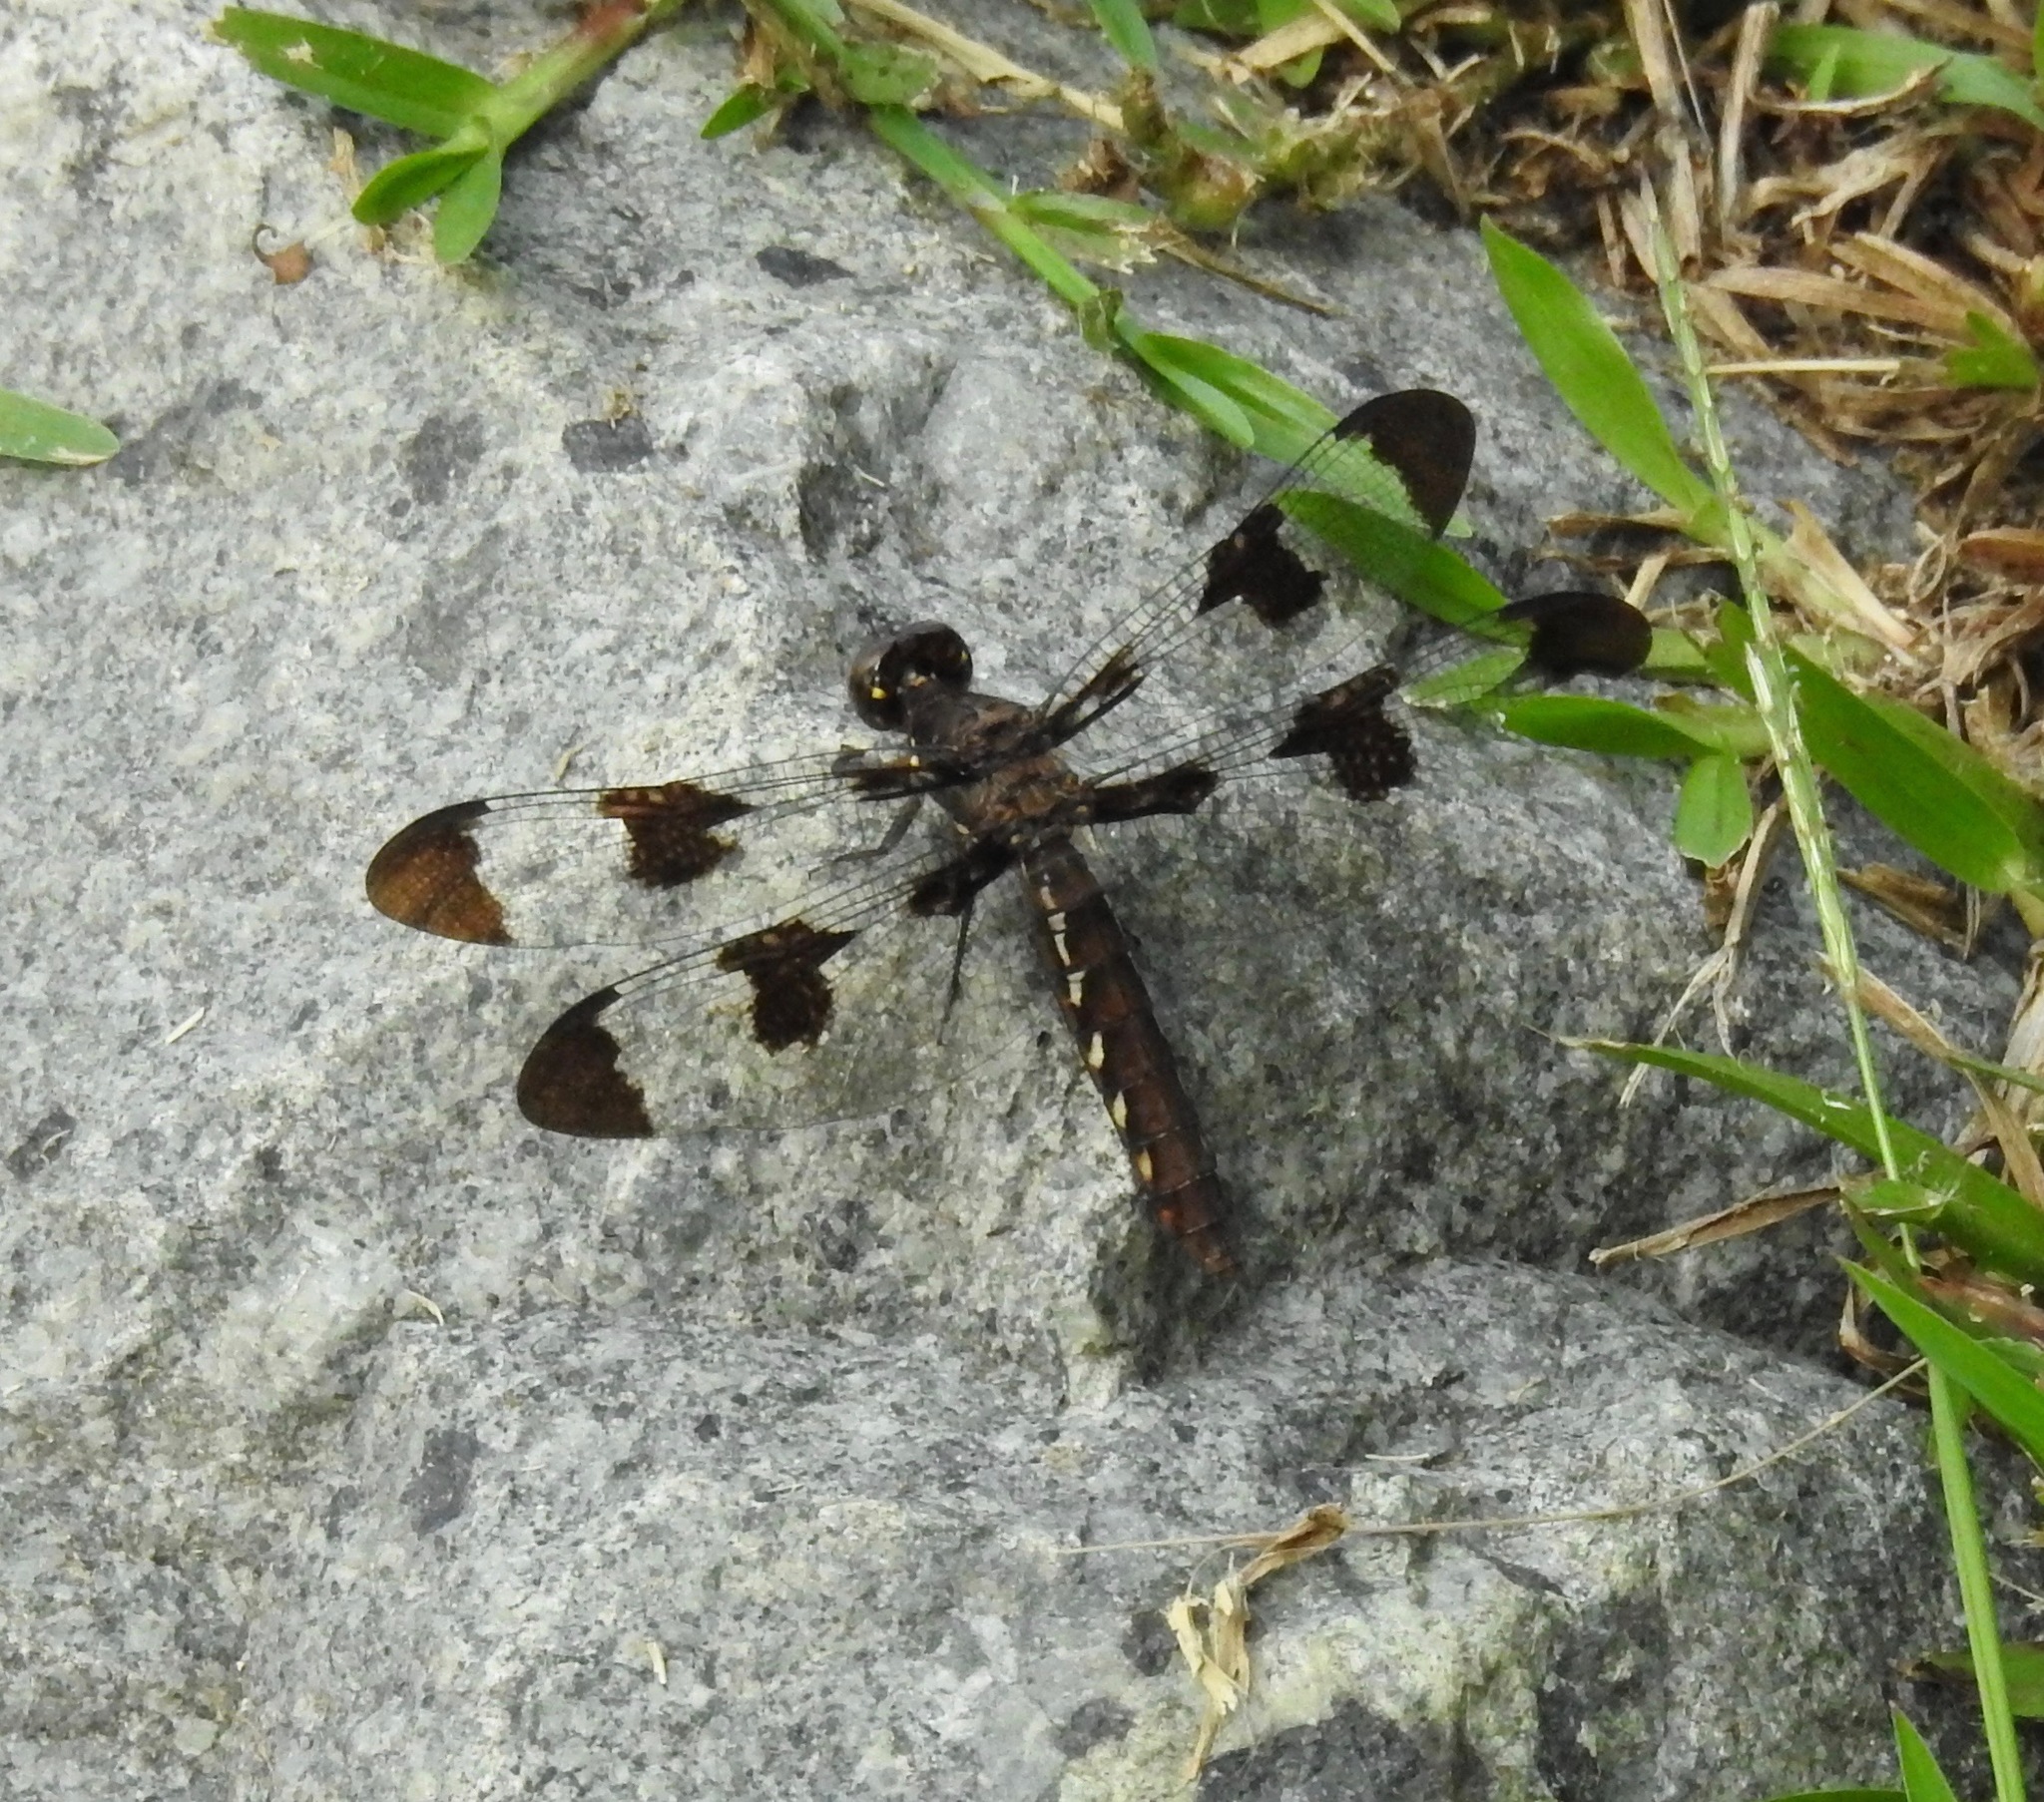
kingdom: Animalia
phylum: Arthropoda
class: Insecta
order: Odonata
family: Libellulidae
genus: Plathemis
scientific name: Plathemis lydia
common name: Common whitetail
